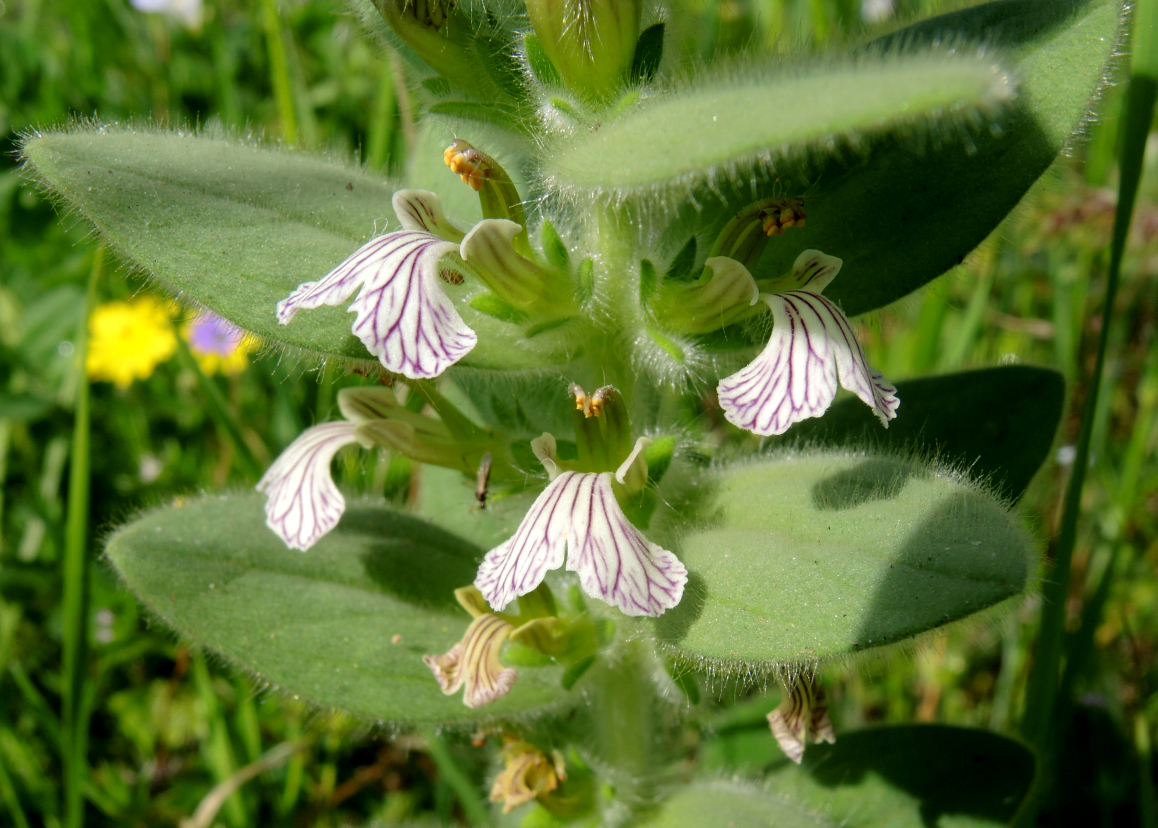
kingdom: Plantae
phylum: Tracheophyta
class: Magnoliopsida
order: Lamiales
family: Lamiaceae
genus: Ajuga
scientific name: Ajuga laxmannii
